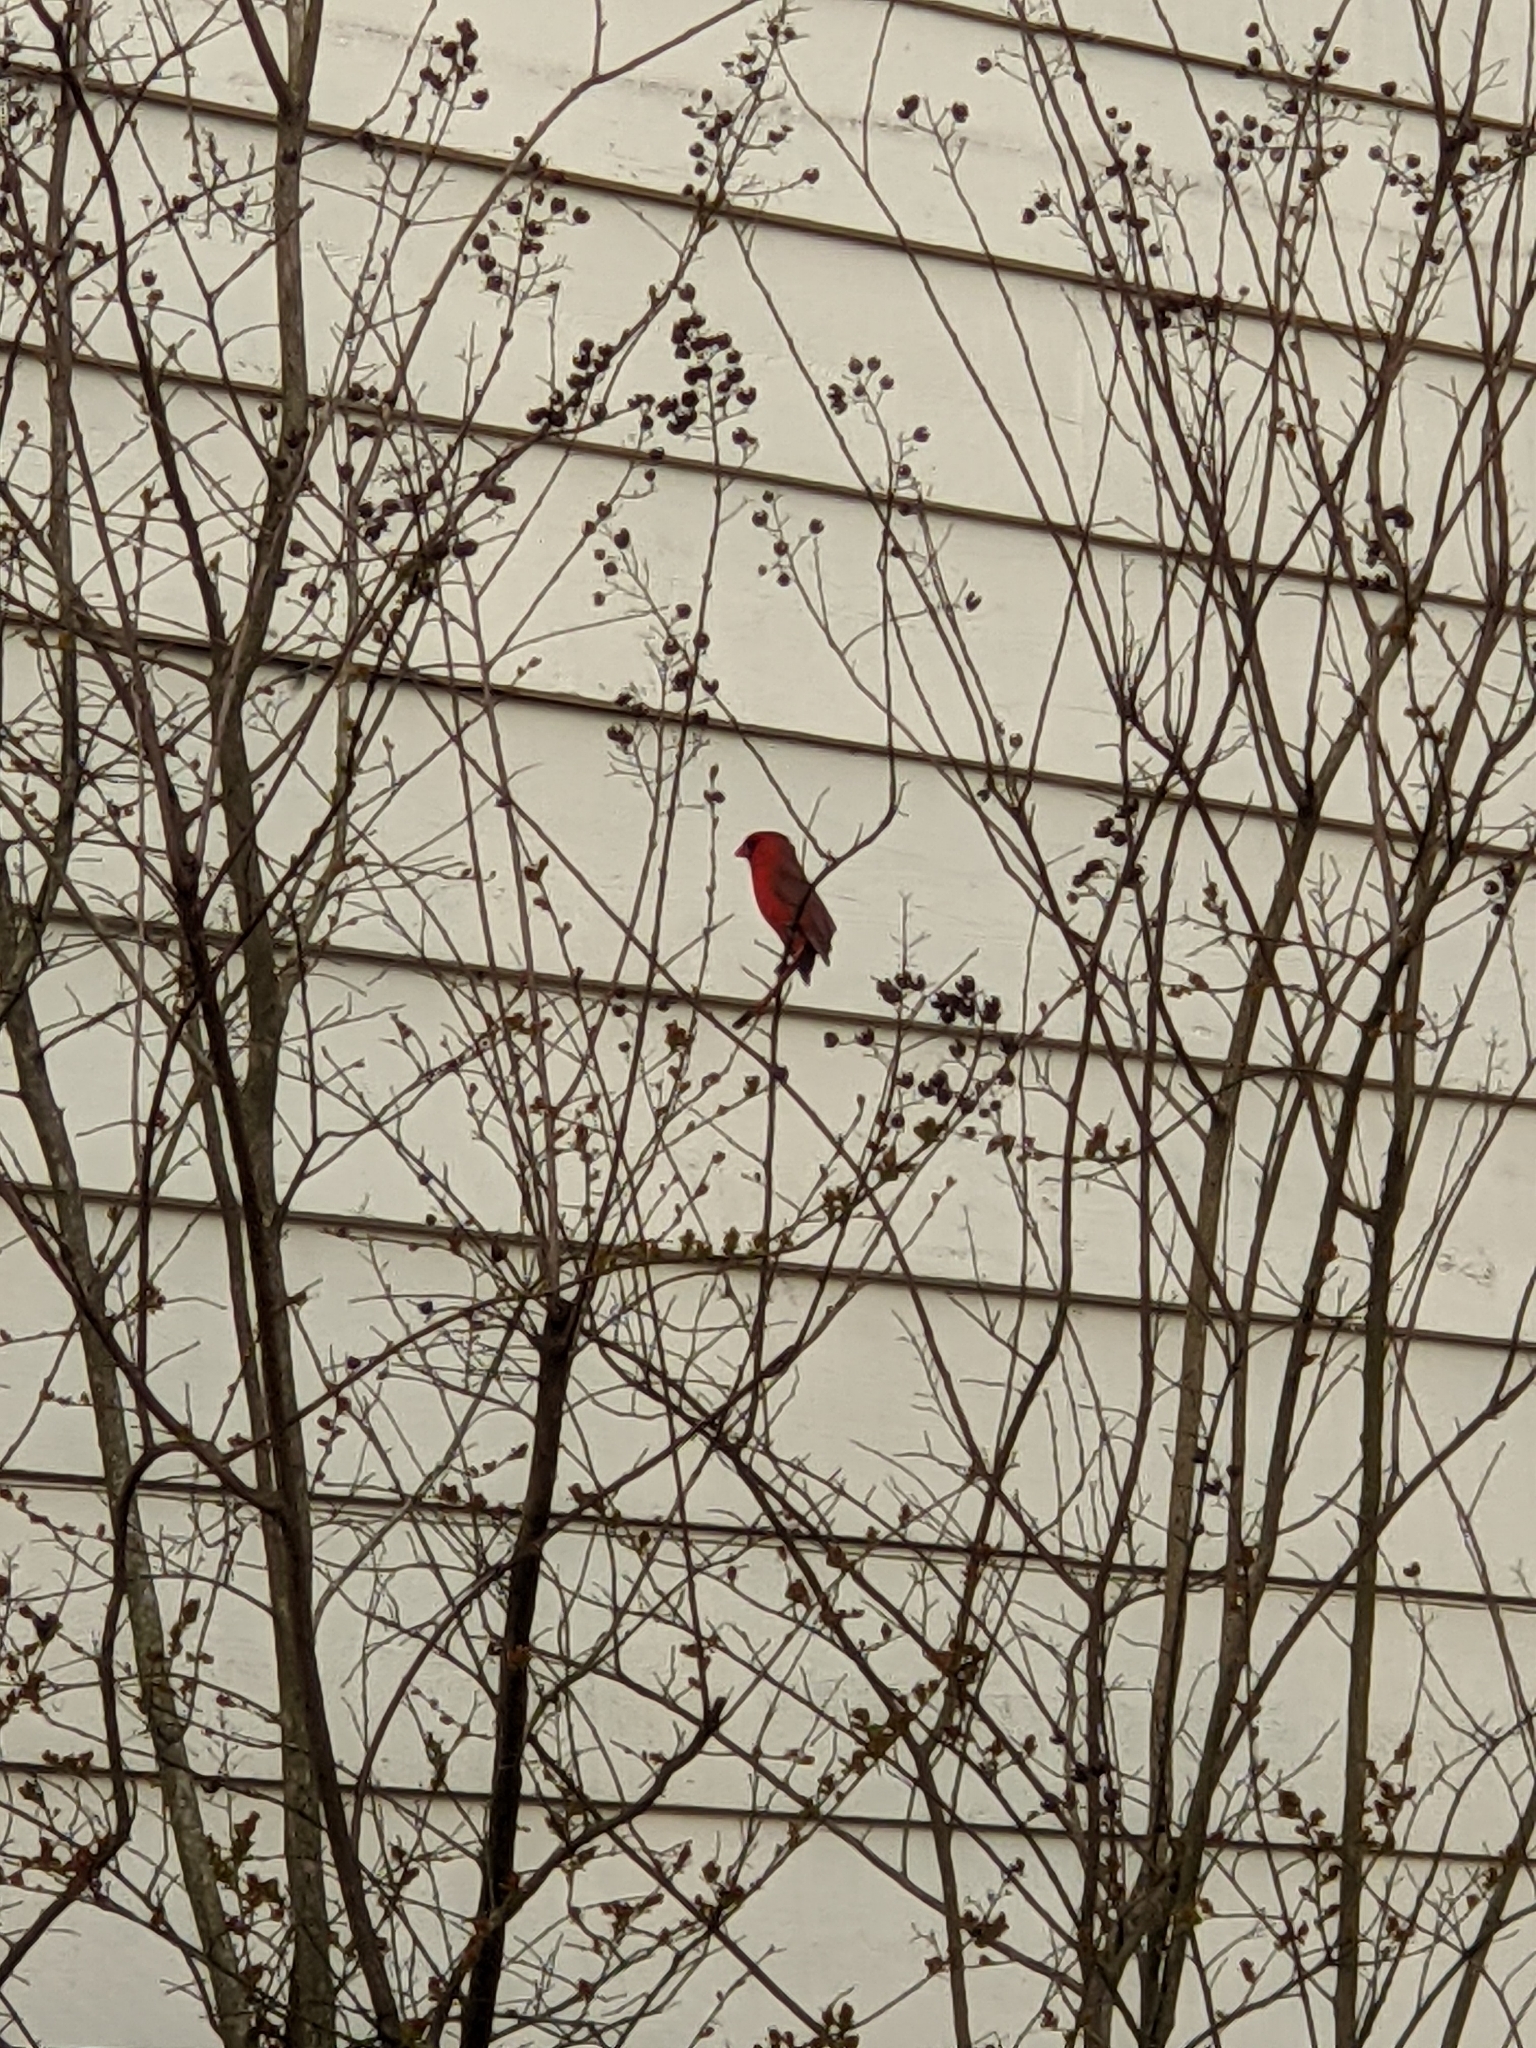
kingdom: Animalia
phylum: Chordata
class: Aves
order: Passeriformes
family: Cardinalidae
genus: Cardinalis
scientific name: Cardinalis cardinalis
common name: Northern cardinal
